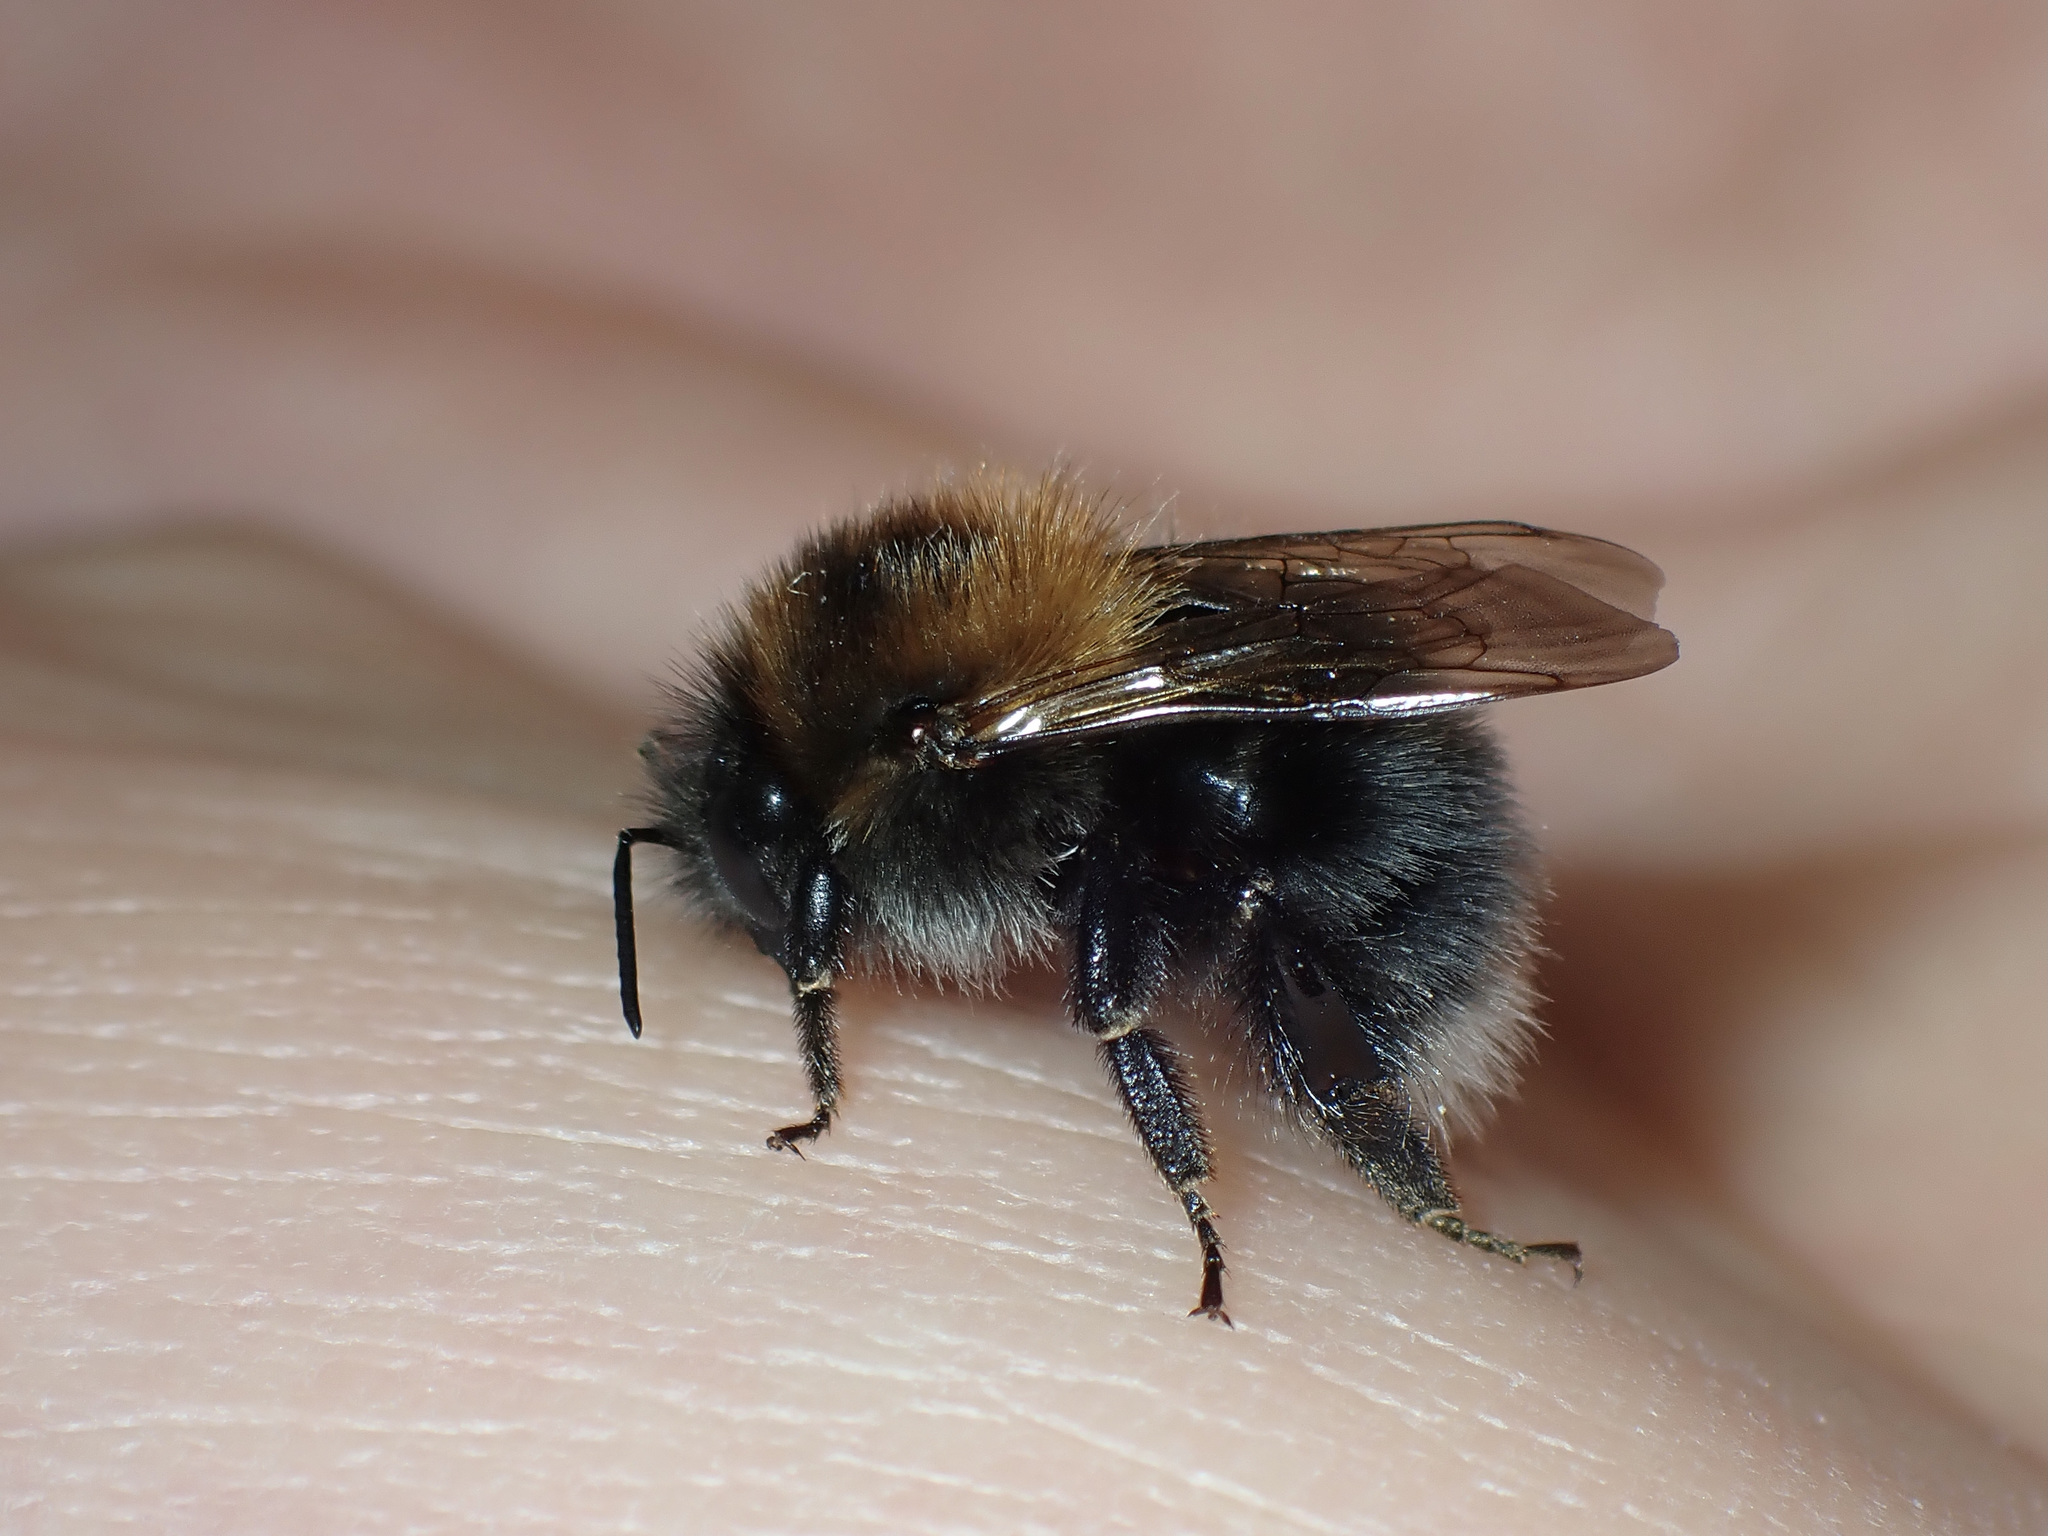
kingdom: Animalia
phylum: Arthropoda
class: Insecta
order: Hymenoptera
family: Apidae
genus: Bombus
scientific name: Bombus hypnorum
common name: New garden bumblebee
